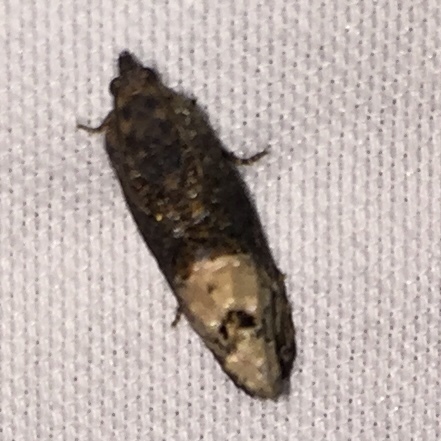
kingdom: Animalia
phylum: Arthropoda
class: Insecta
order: Lepidoptera
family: Tortricidae
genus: Ecdytolopha
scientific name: Ecdytolopha insiticiana
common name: Locust twig borer moth
